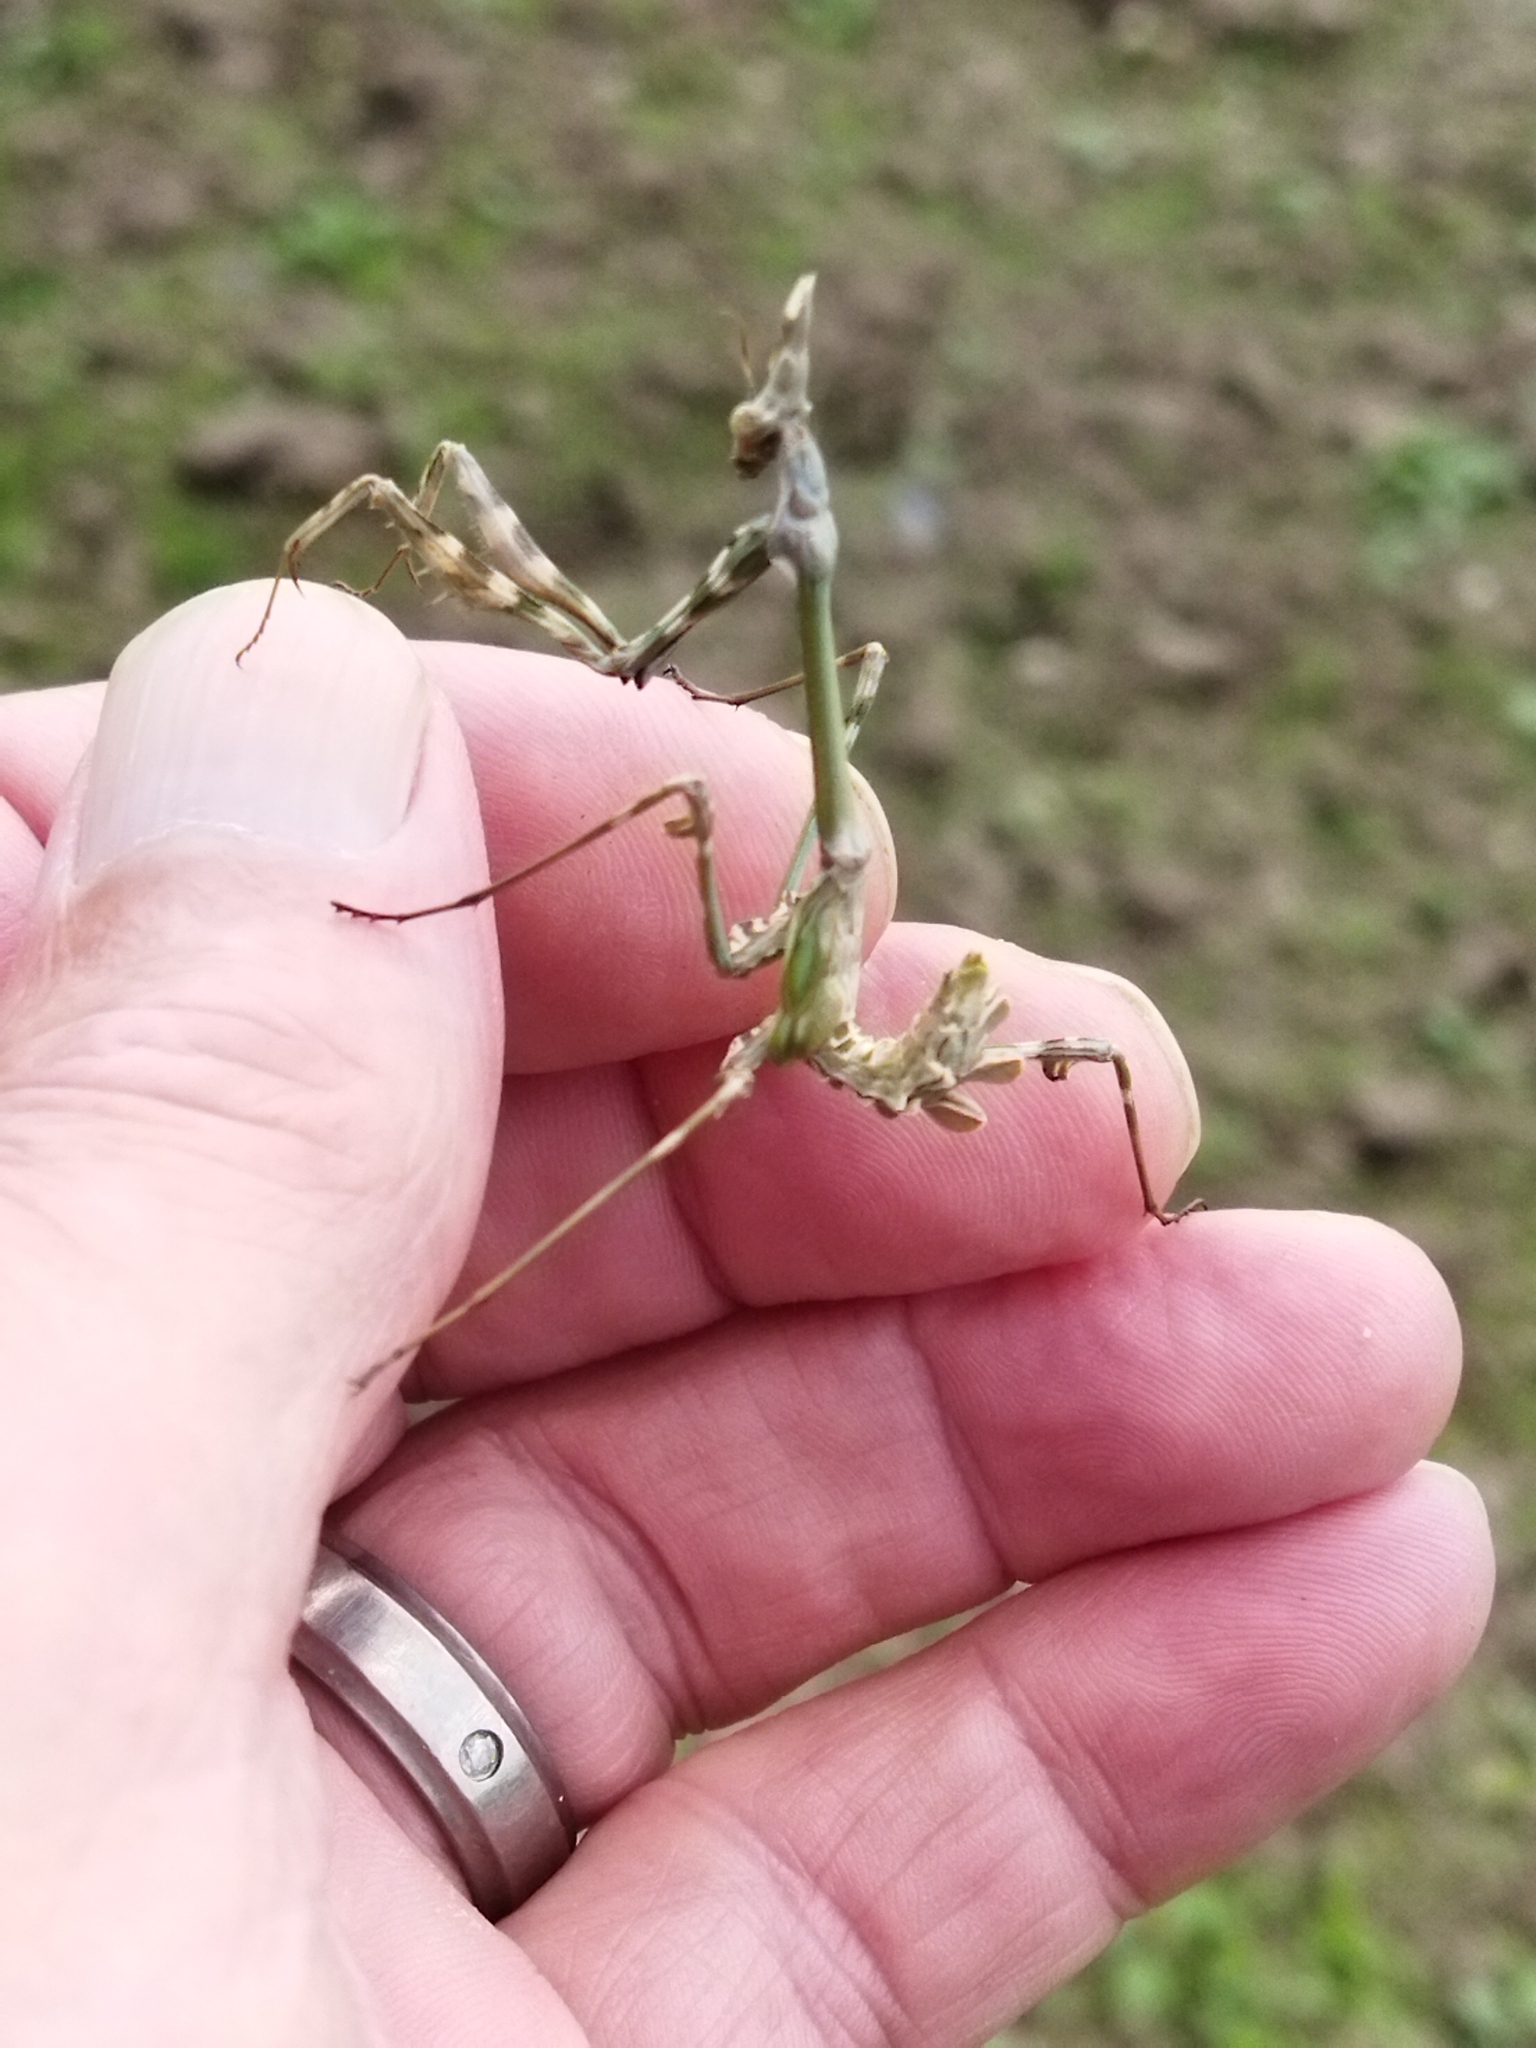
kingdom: Animalia
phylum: Arthropoda
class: Insecta
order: Mantodea
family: Empusidae
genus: Empusa
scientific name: Empusa fasciata
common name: Devil's mare
